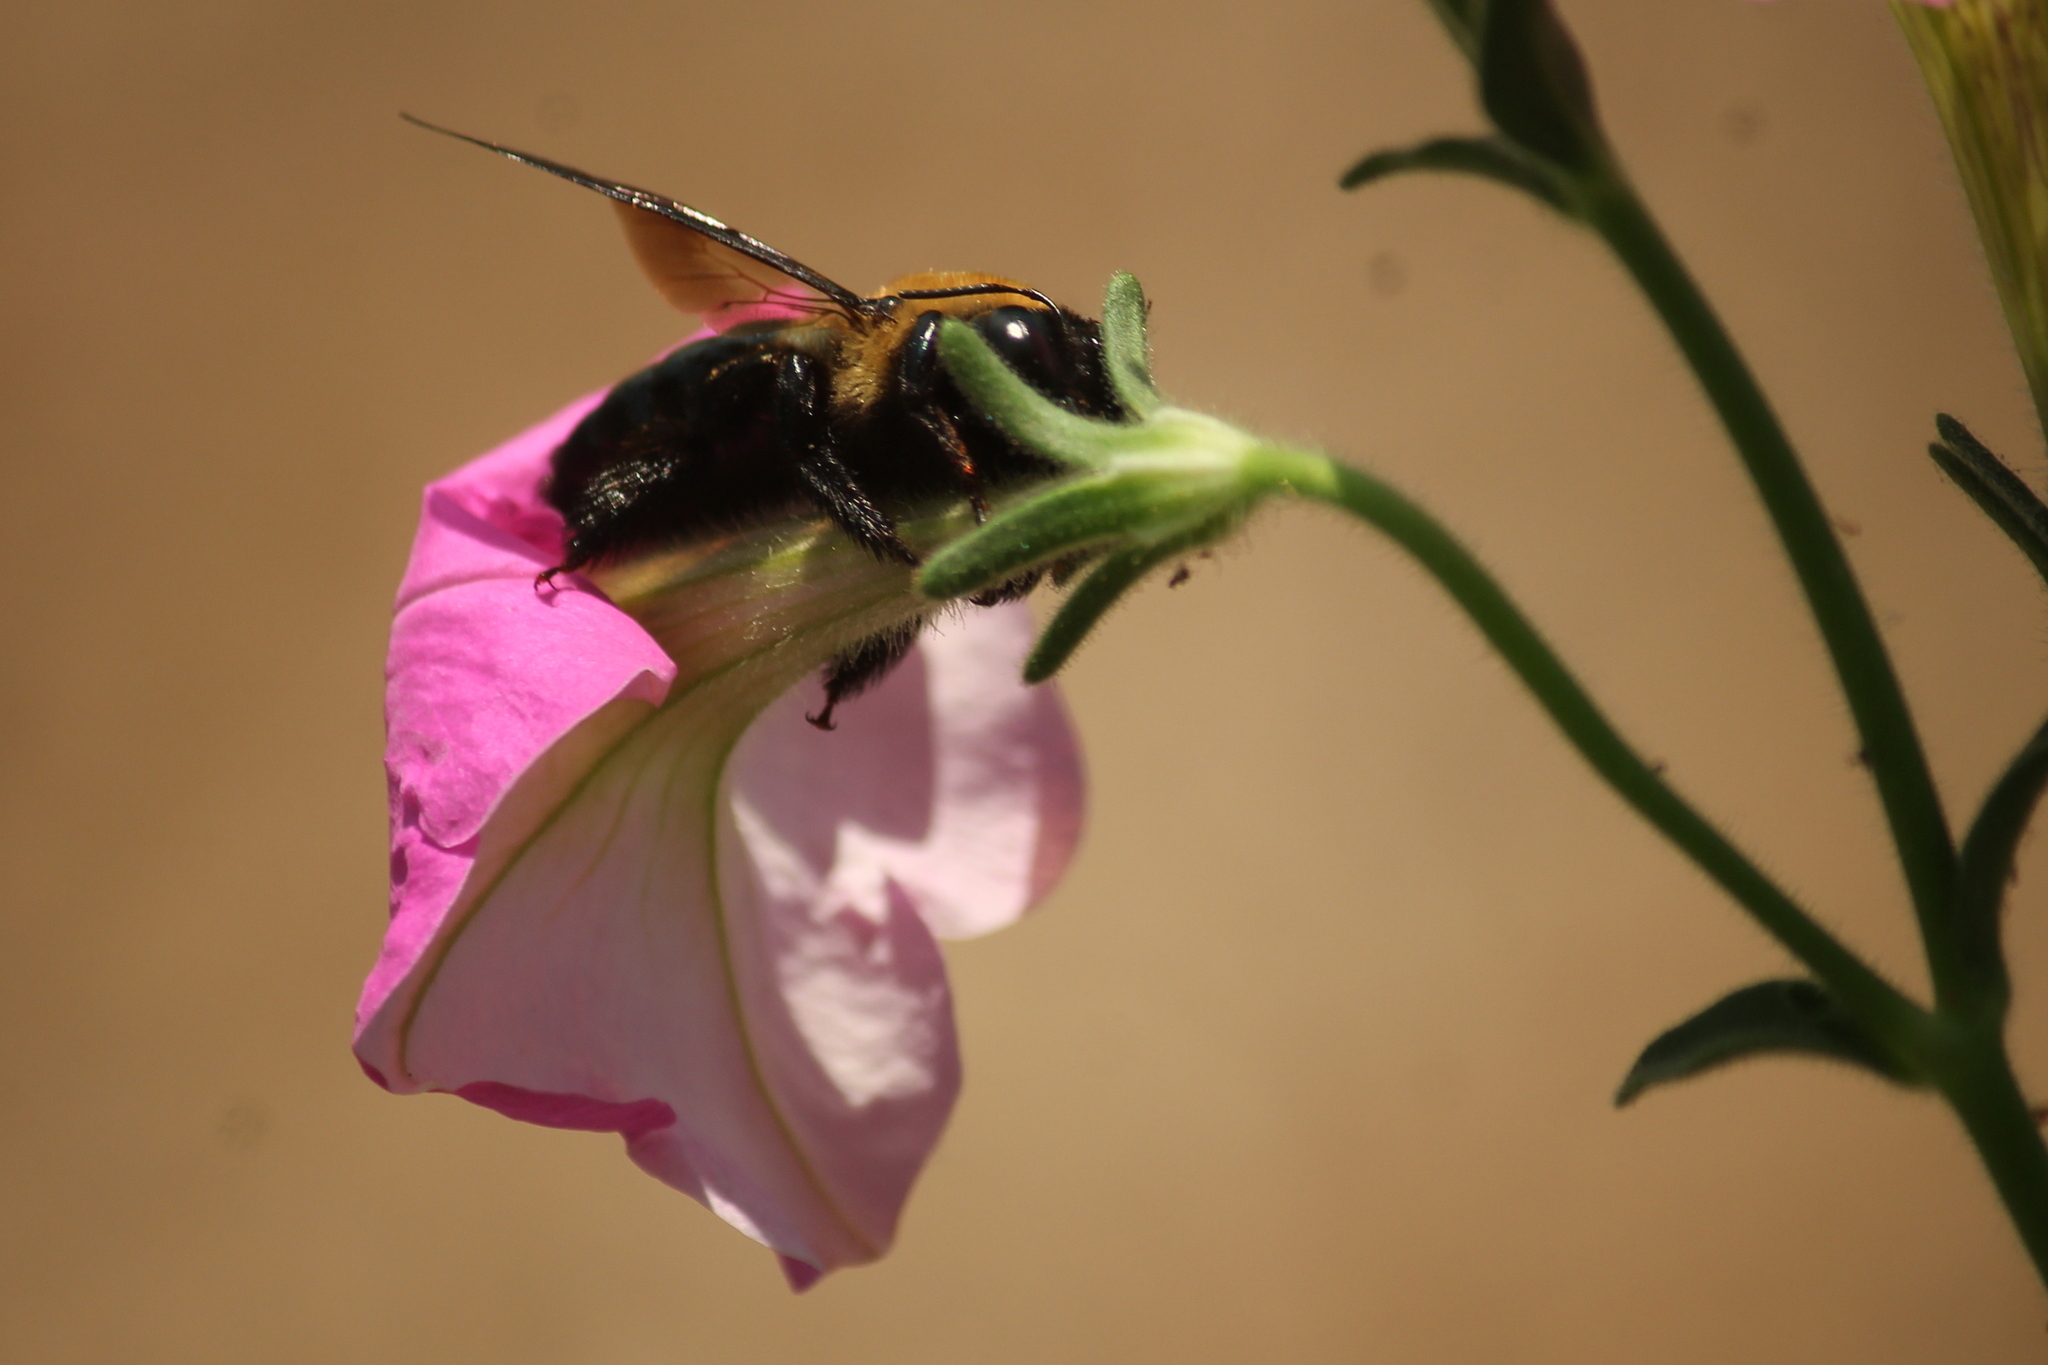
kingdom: Animalia
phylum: Arthropoda
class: Insecta
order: Hymenoptera
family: Apidae
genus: Xylocopa
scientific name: Xylocopa virginica
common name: Carpenter bee
